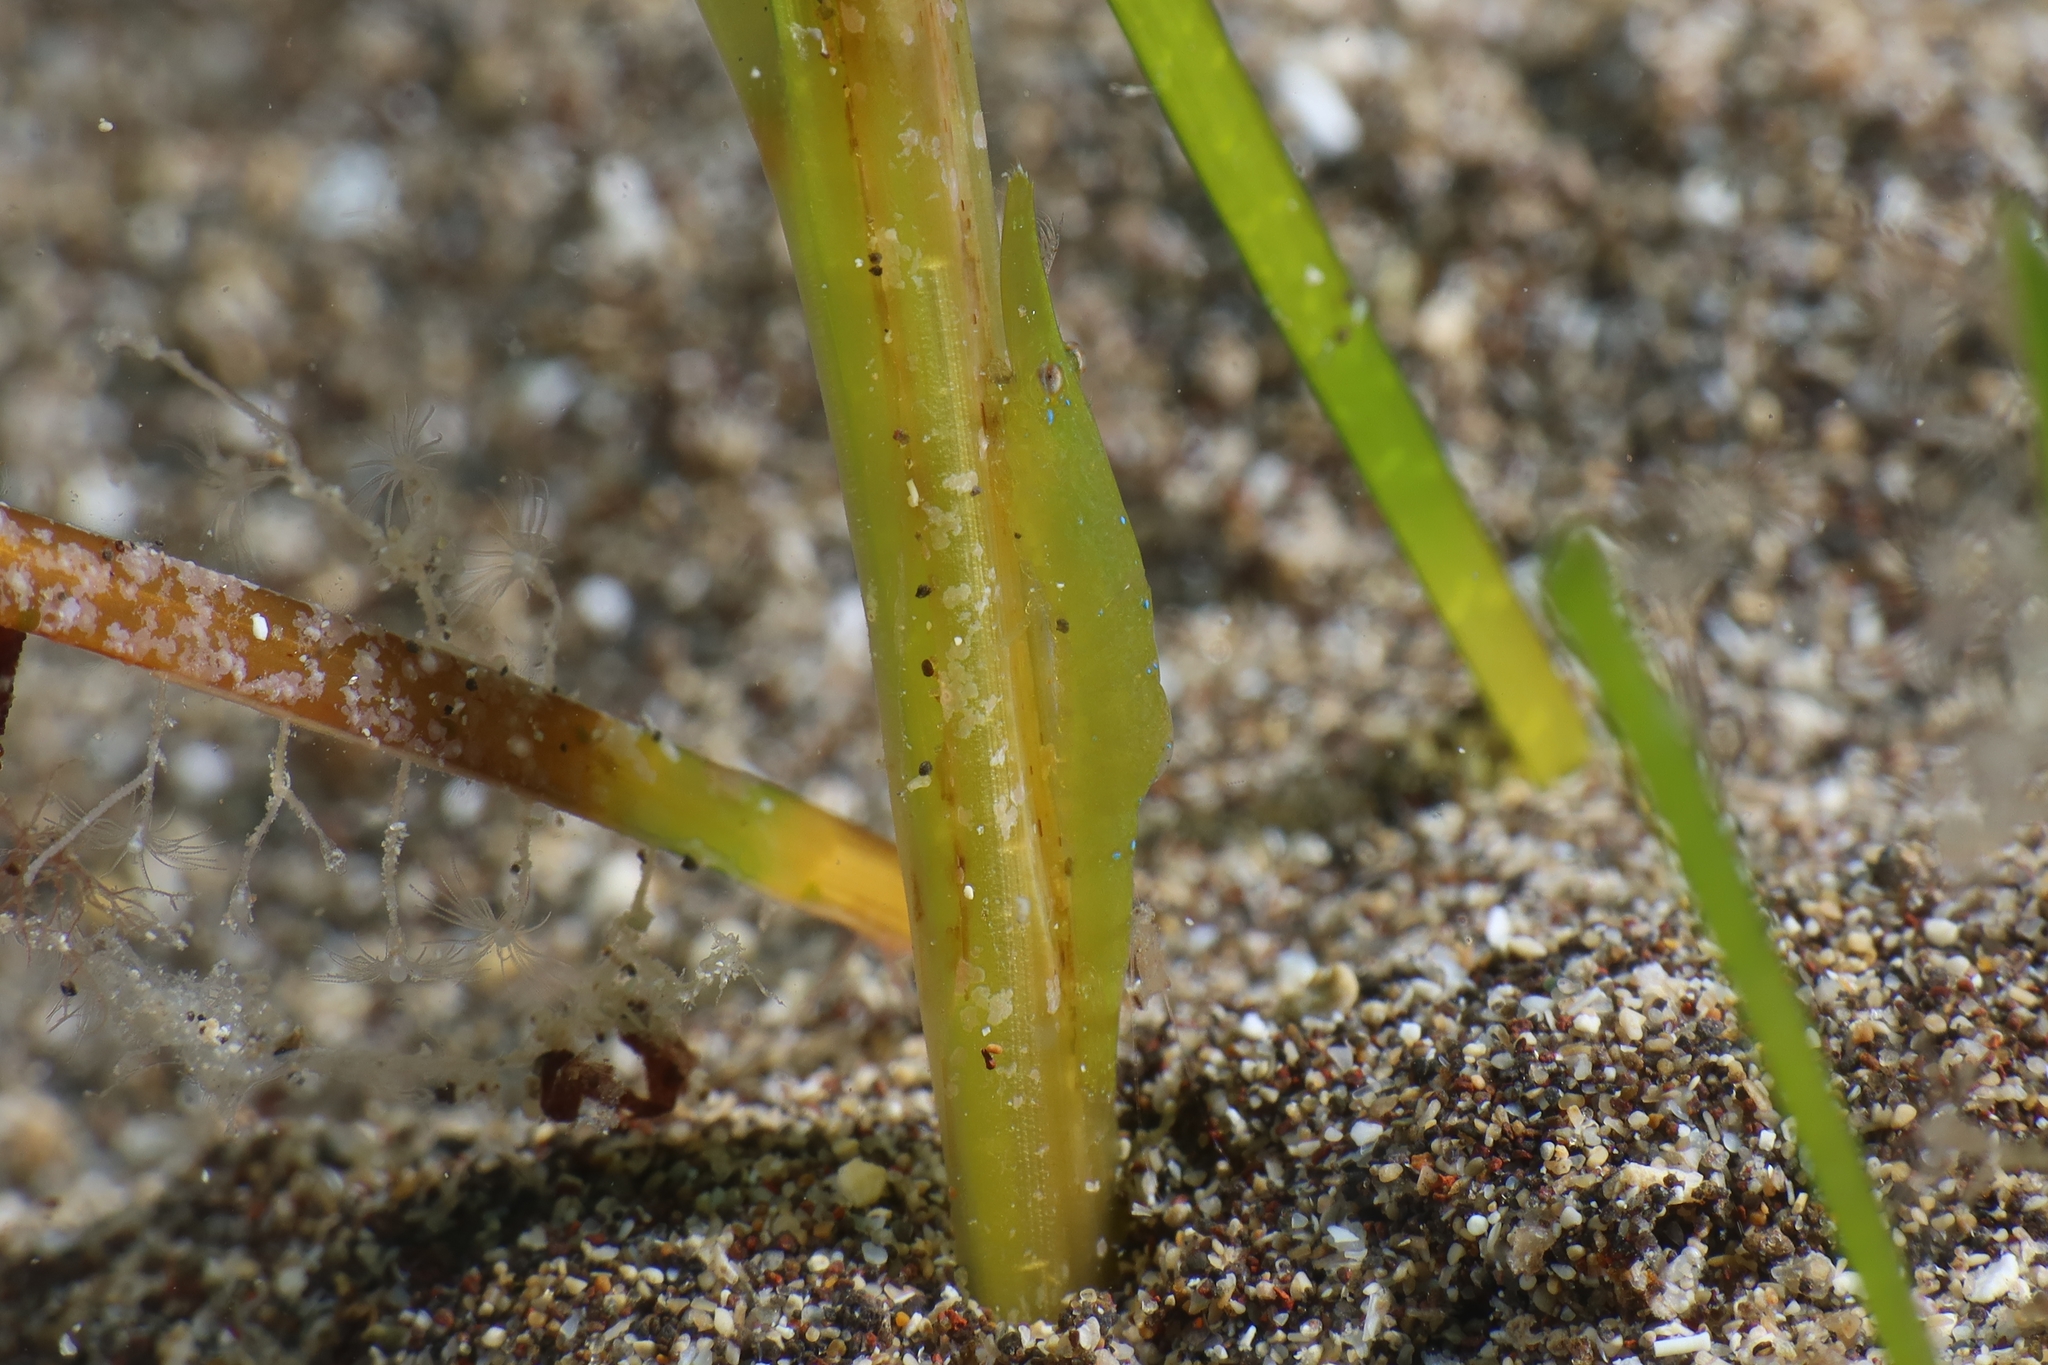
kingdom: Animalia
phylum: Arthropoda
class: Malacostraca
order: Decapoda
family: Hippolytidae
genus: Latreutes
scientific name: Latreutes fucorum
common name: Slender sargassum shrimp
